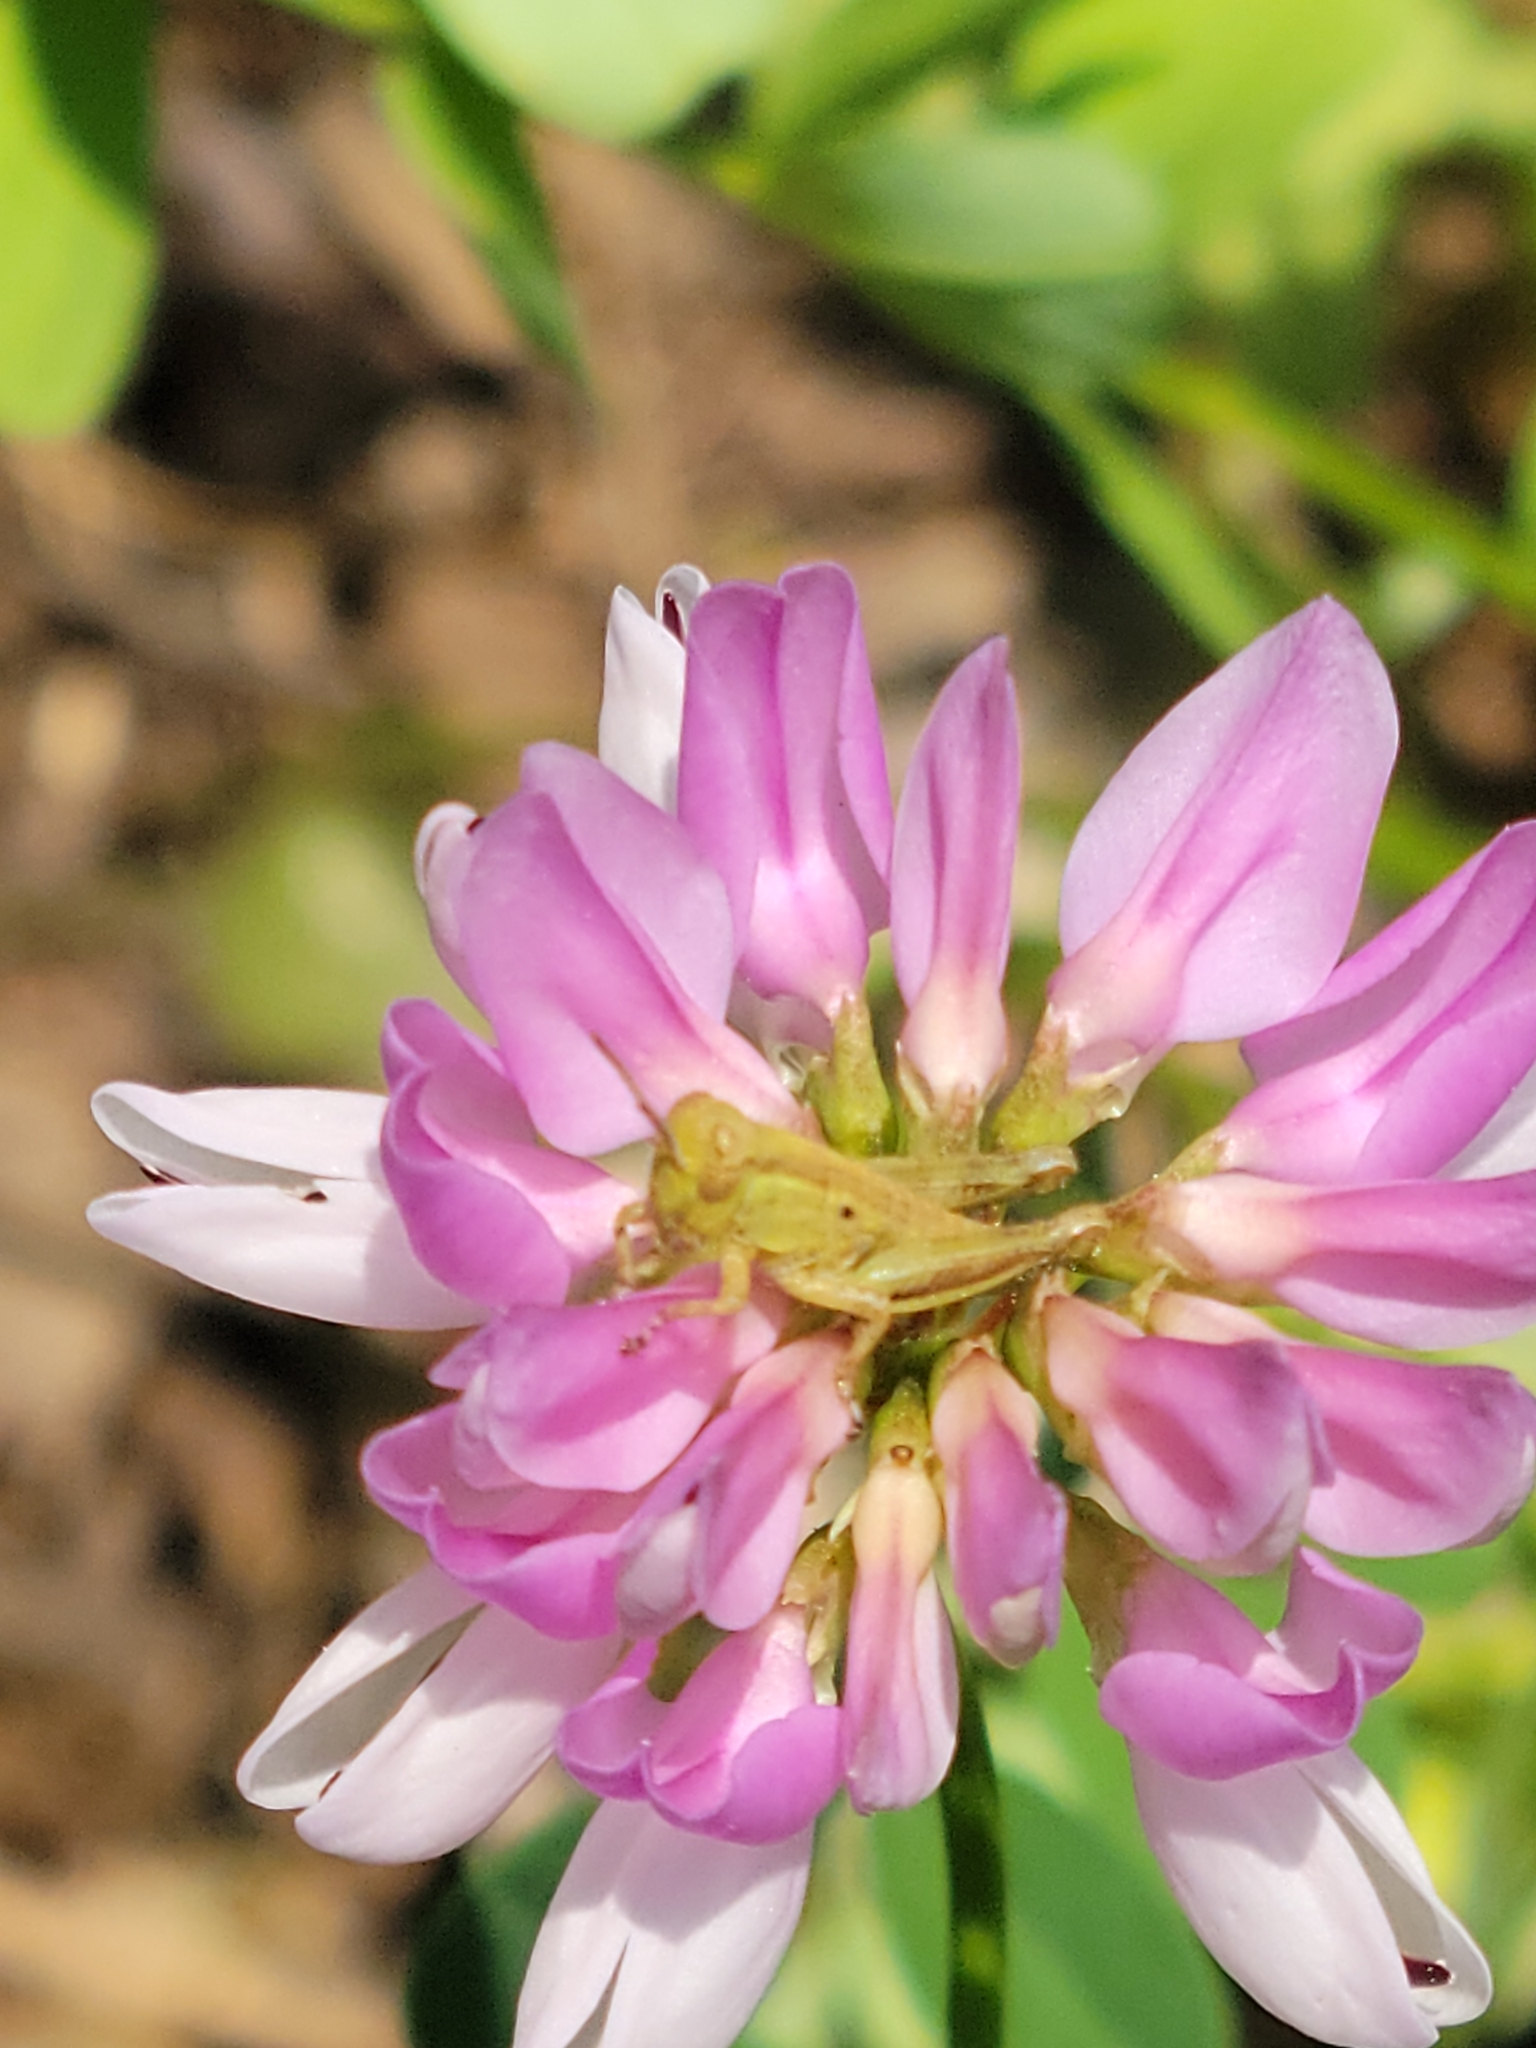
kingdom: Plantae
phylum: Tracheophyta
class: Magnoliopsida
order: Fabales
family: Fabaceae
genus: Coronilla
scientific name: Coronilla varia
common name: Crownvetch
